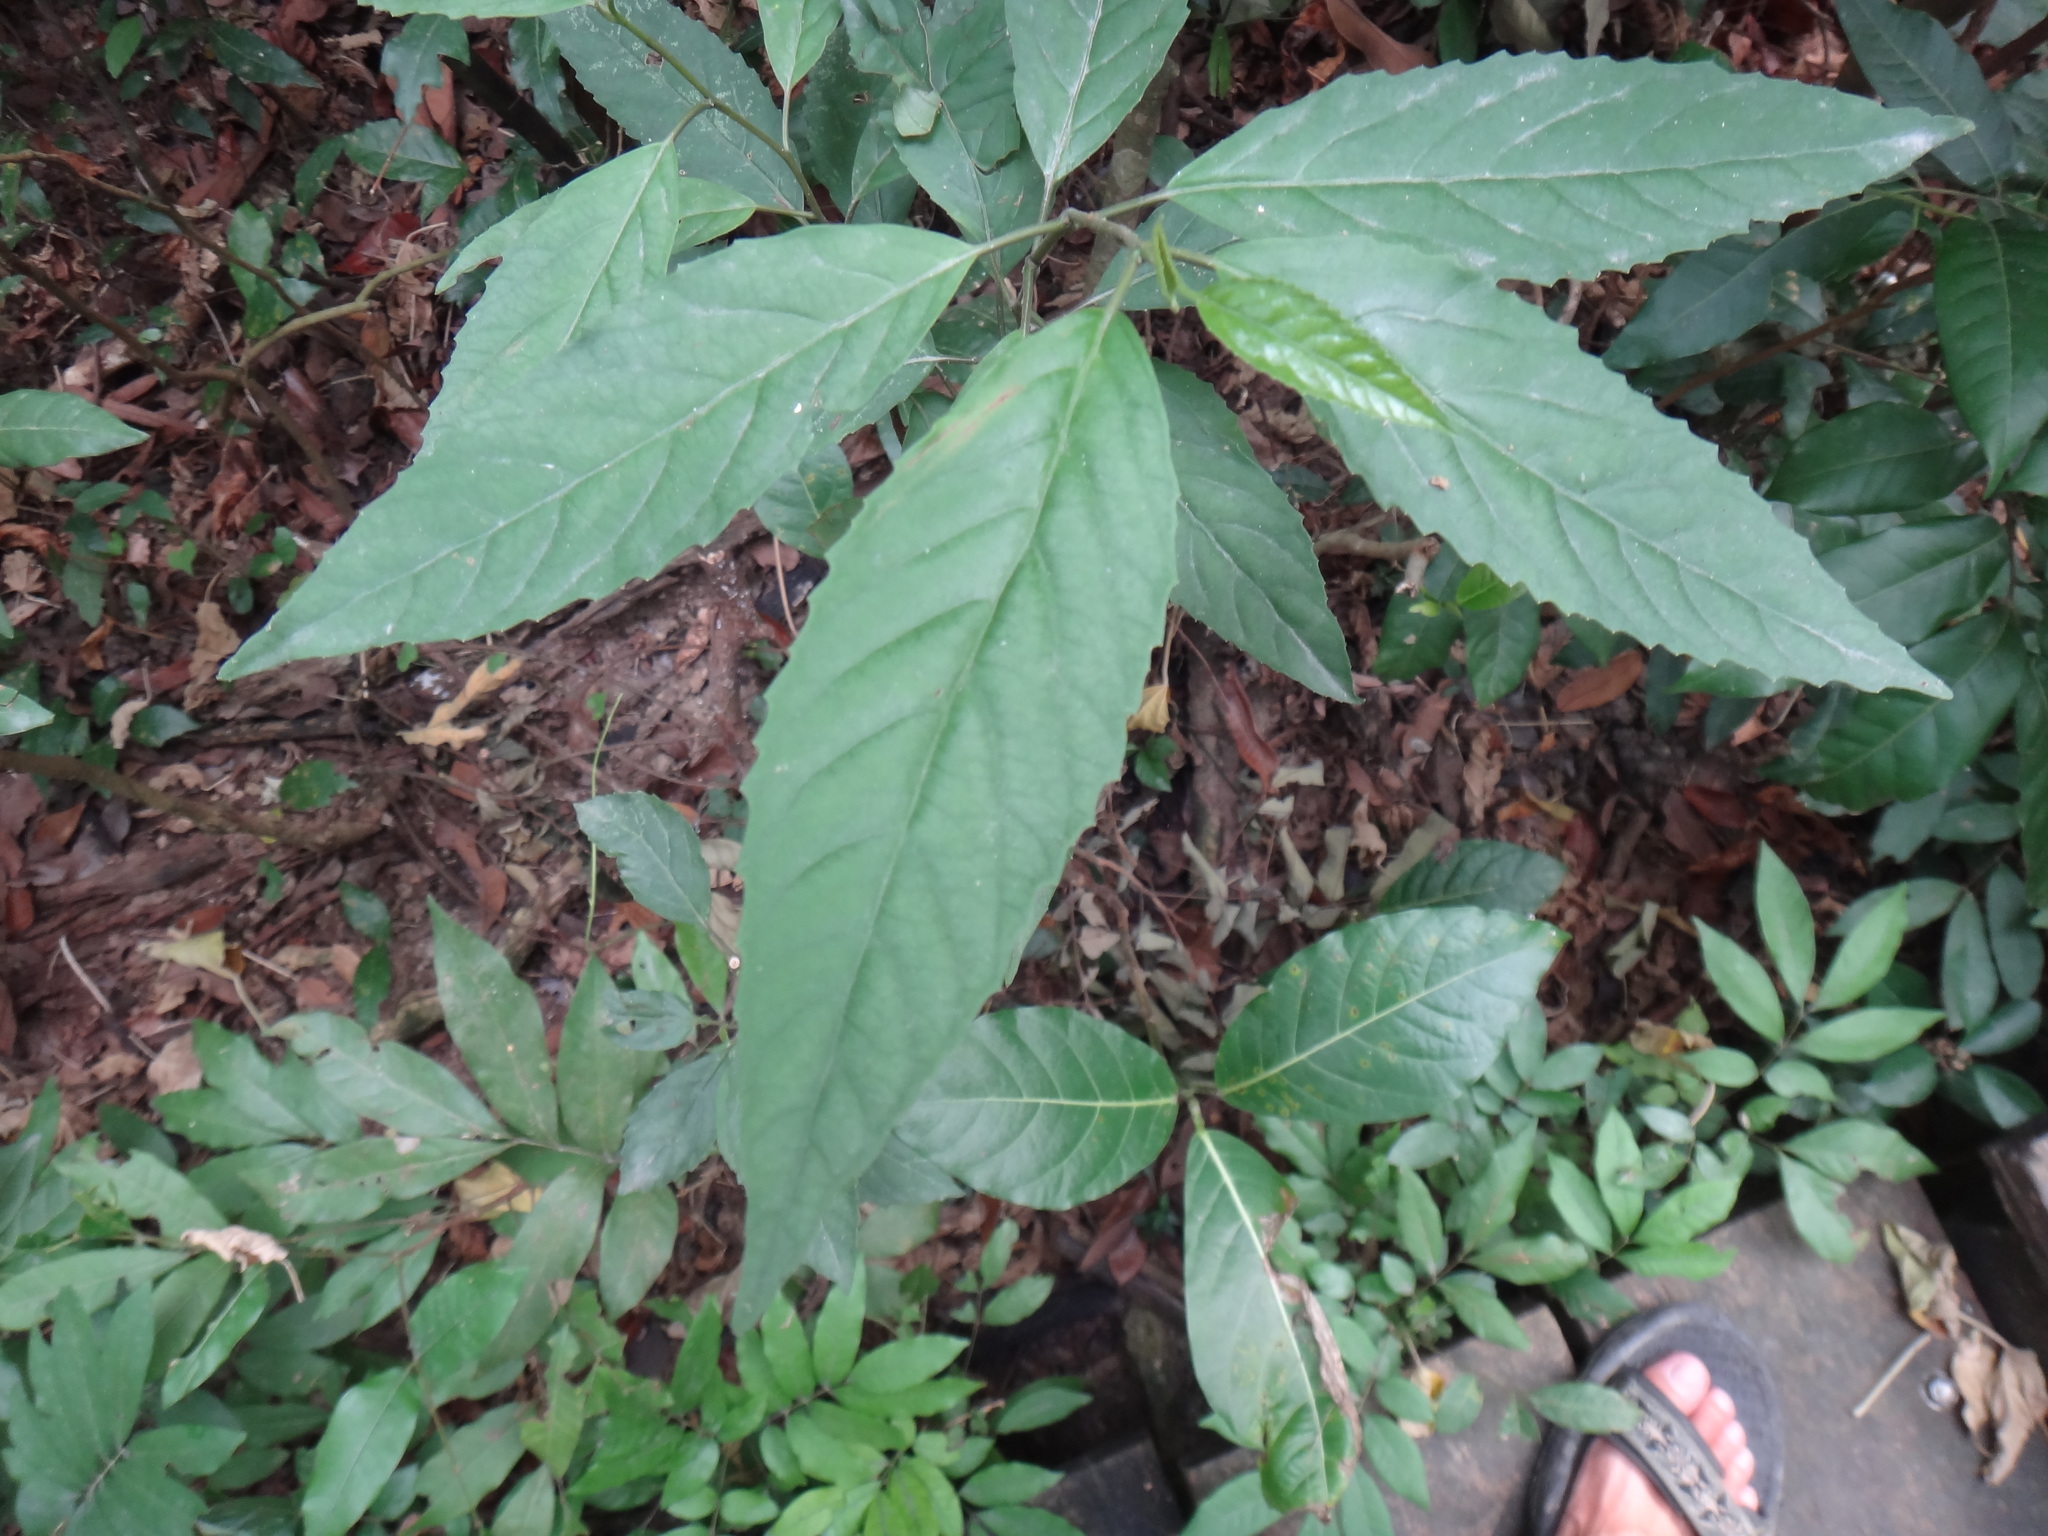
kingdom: Plantae
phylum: Tracheophyta
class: Magnoliopsida
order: Ericales
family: Primulaceae
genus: Maesa
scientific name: Maesa perlaria
